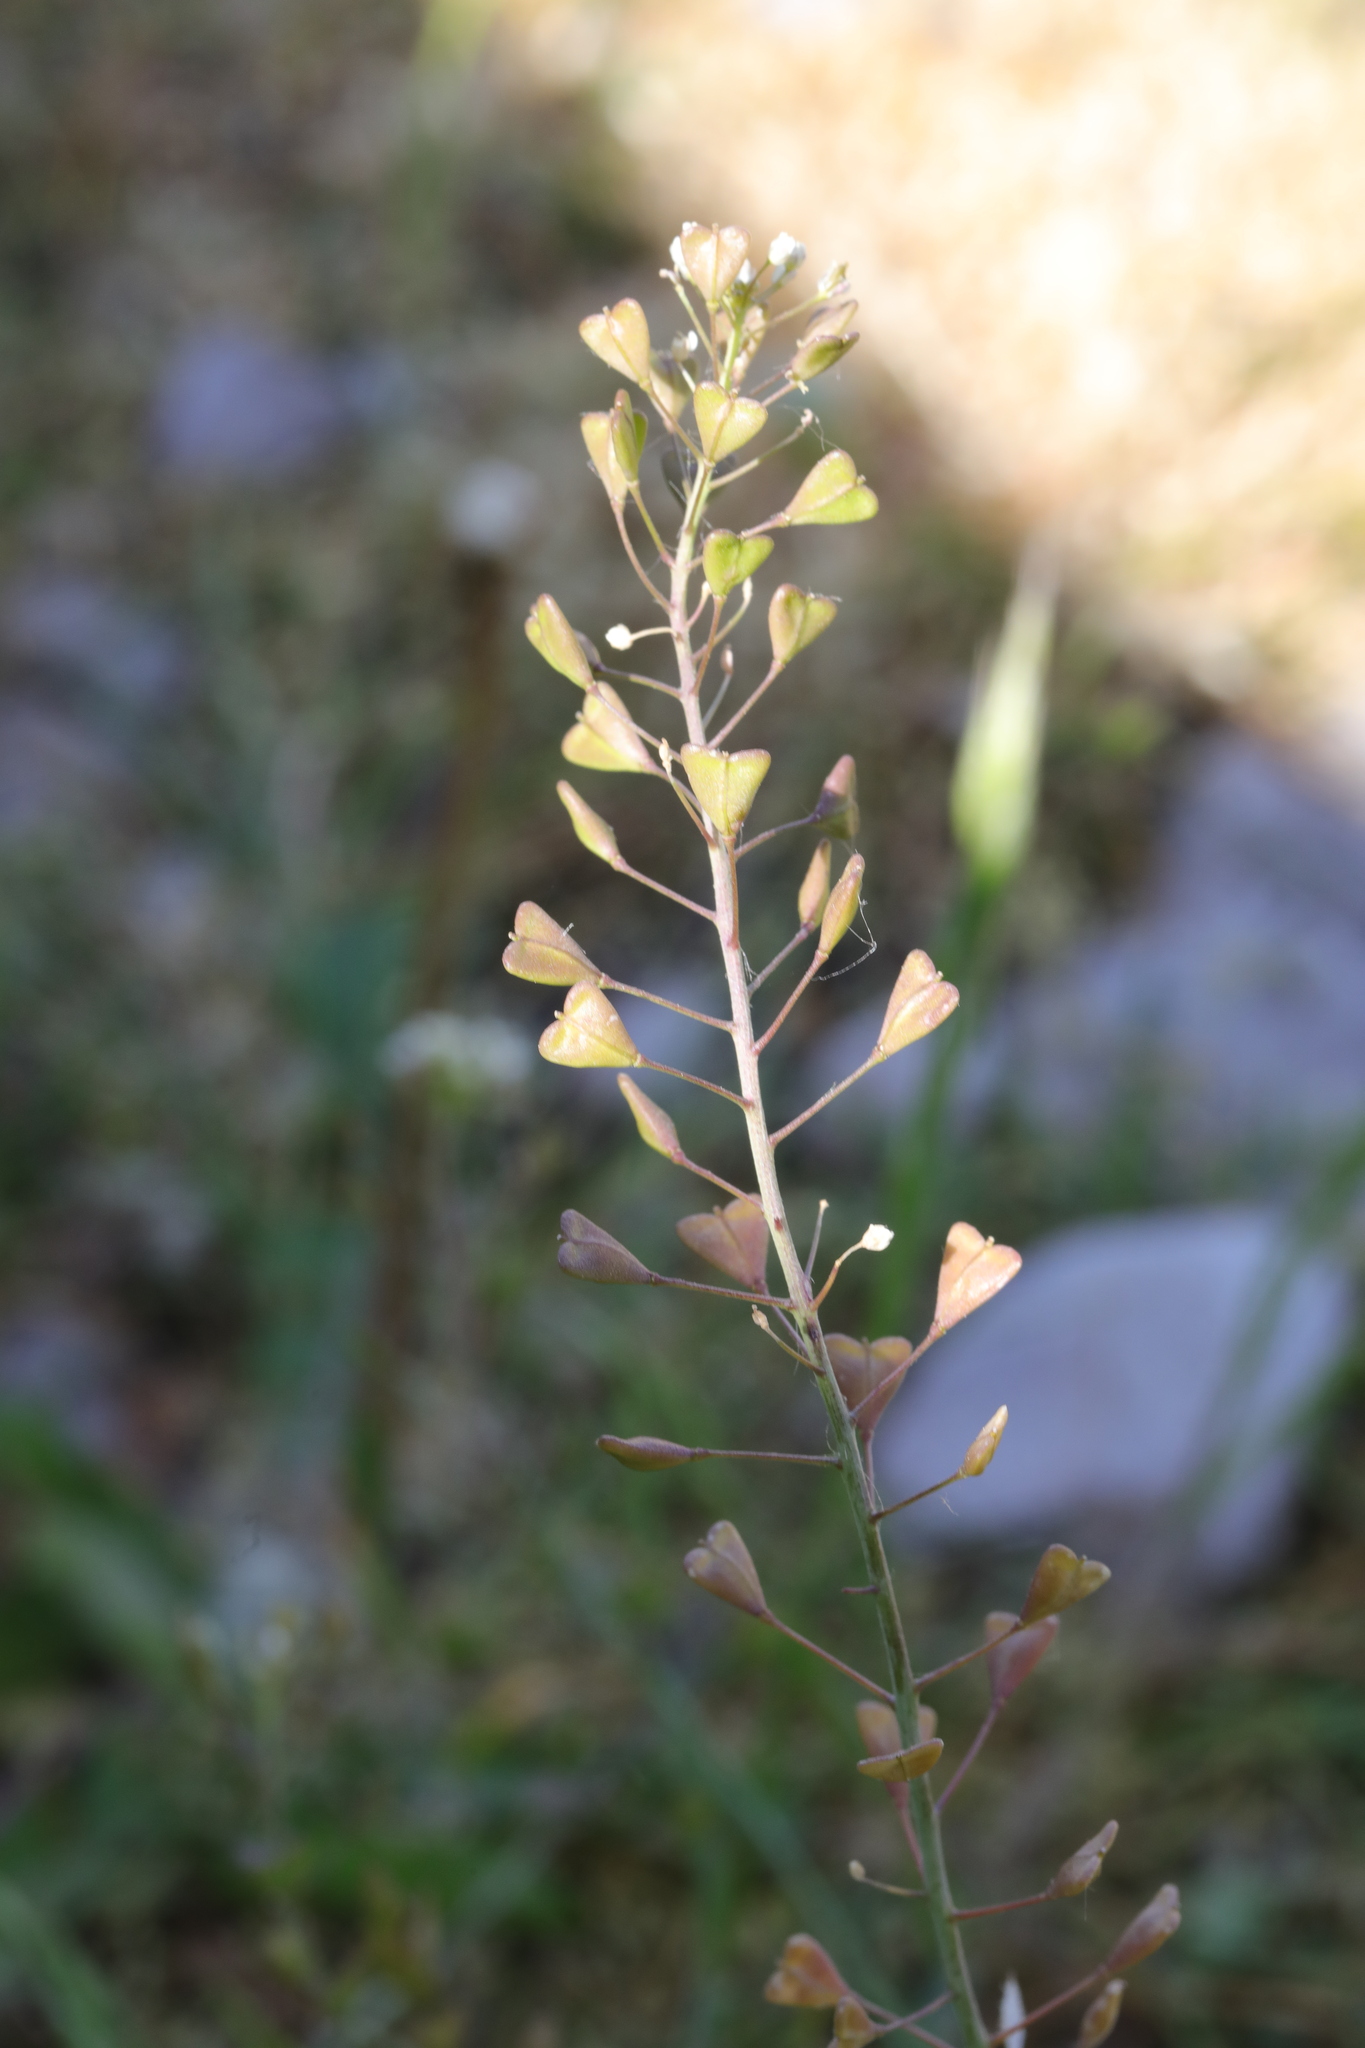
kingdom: Plantae
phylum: Tracheophyta
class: Magnoliopsida
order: Brassicales
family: Brassicaceae
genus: Capsella
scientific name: Capsella bursa-pastoris
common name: Shepherd's purse
